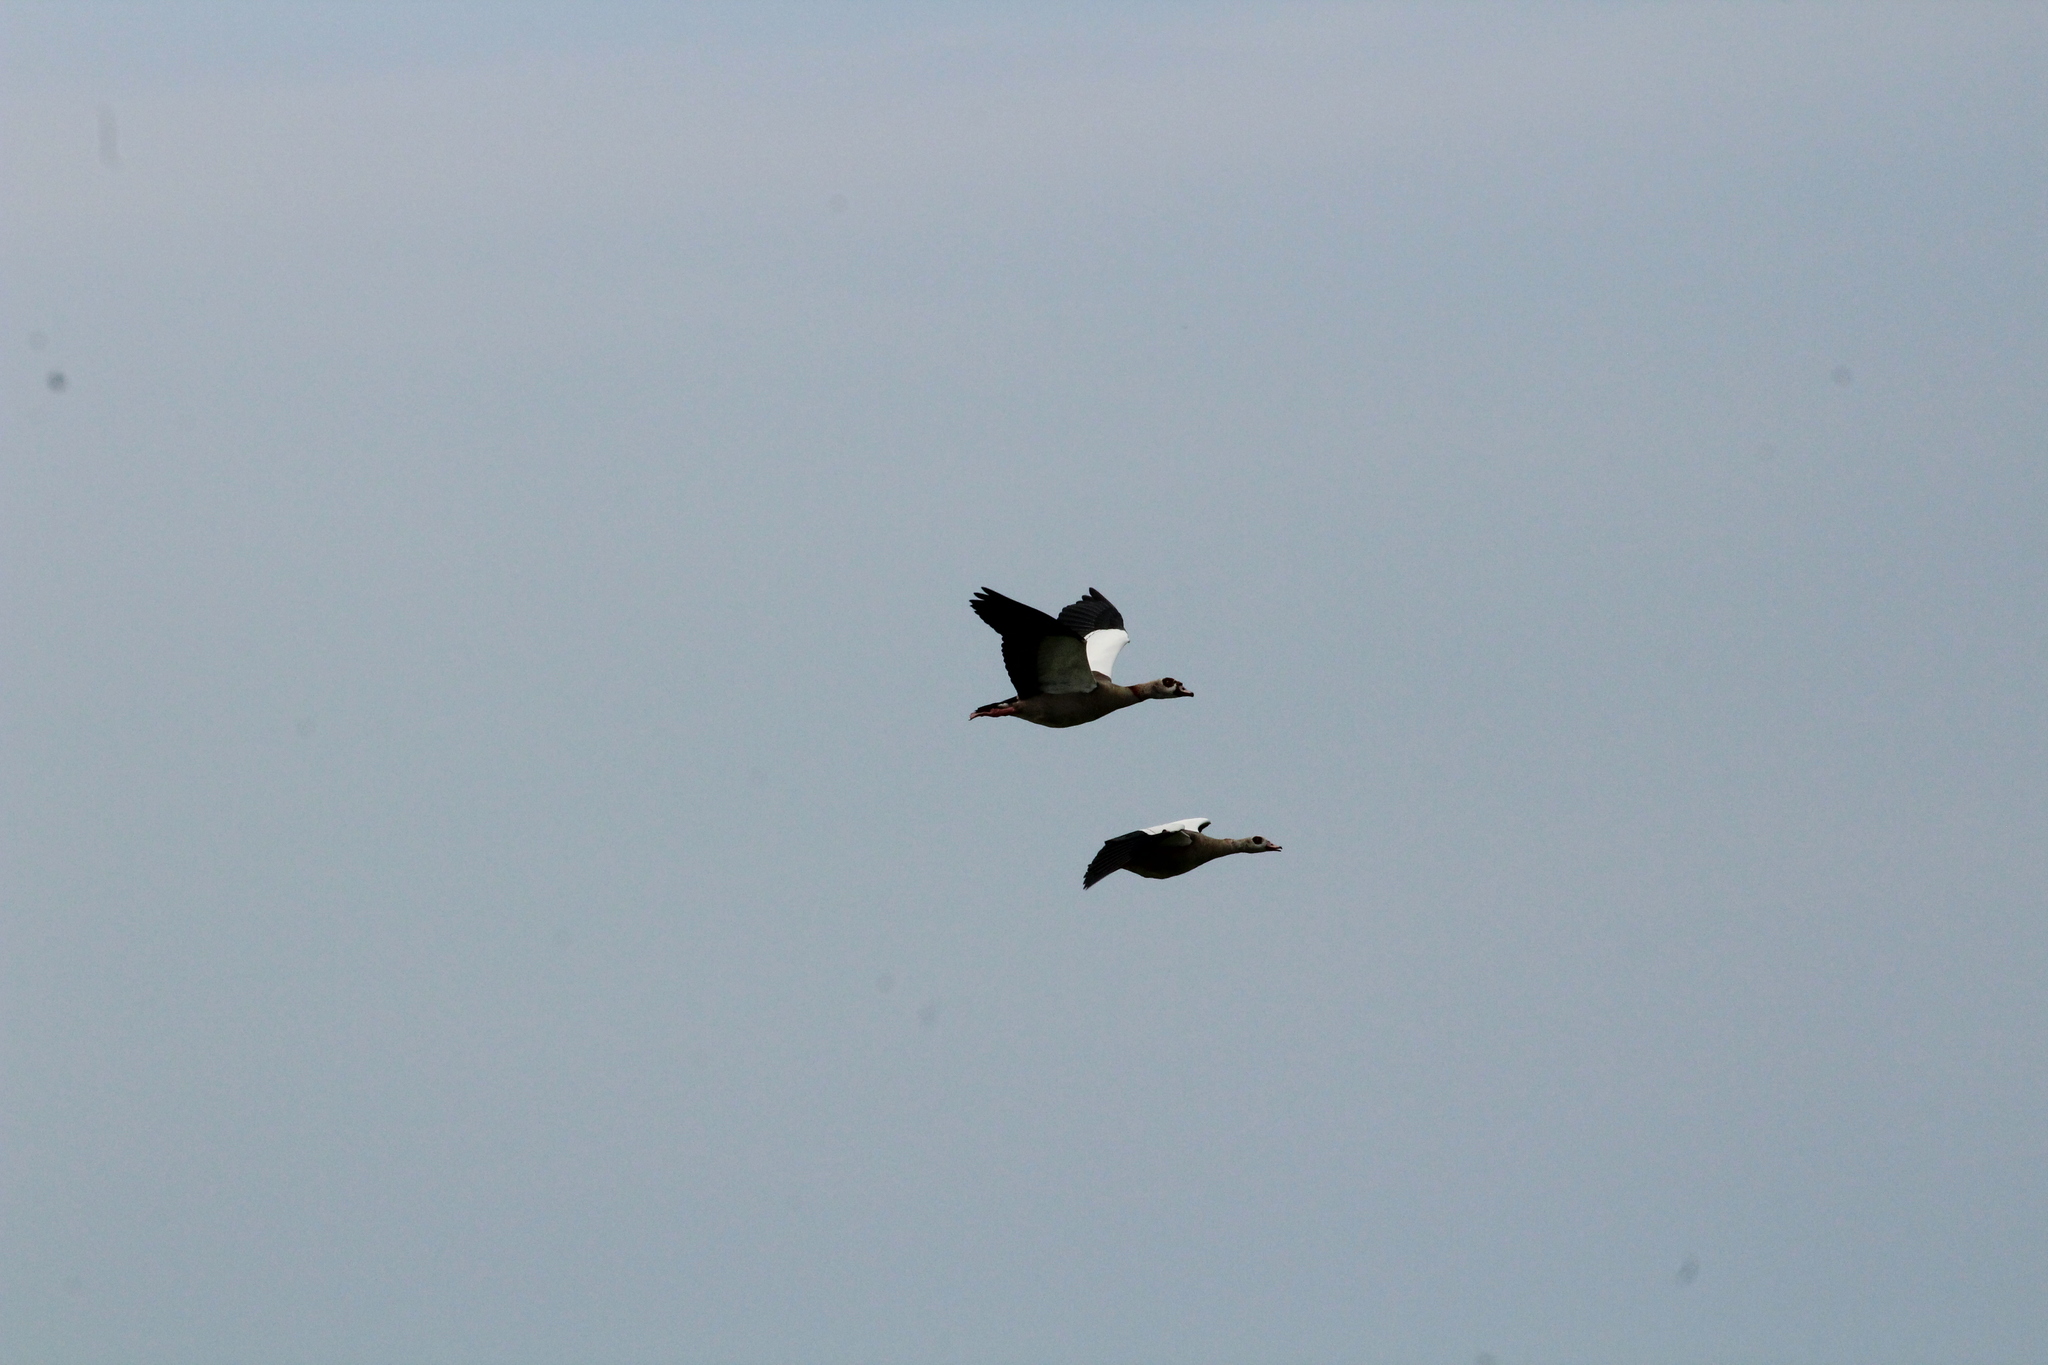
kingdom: Animalia
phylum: Chordata
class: Aves
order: Anseriformes
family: Anatidae
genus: Alopochen
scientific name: Alopochen aegyptiaca
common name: Egyptian goose
